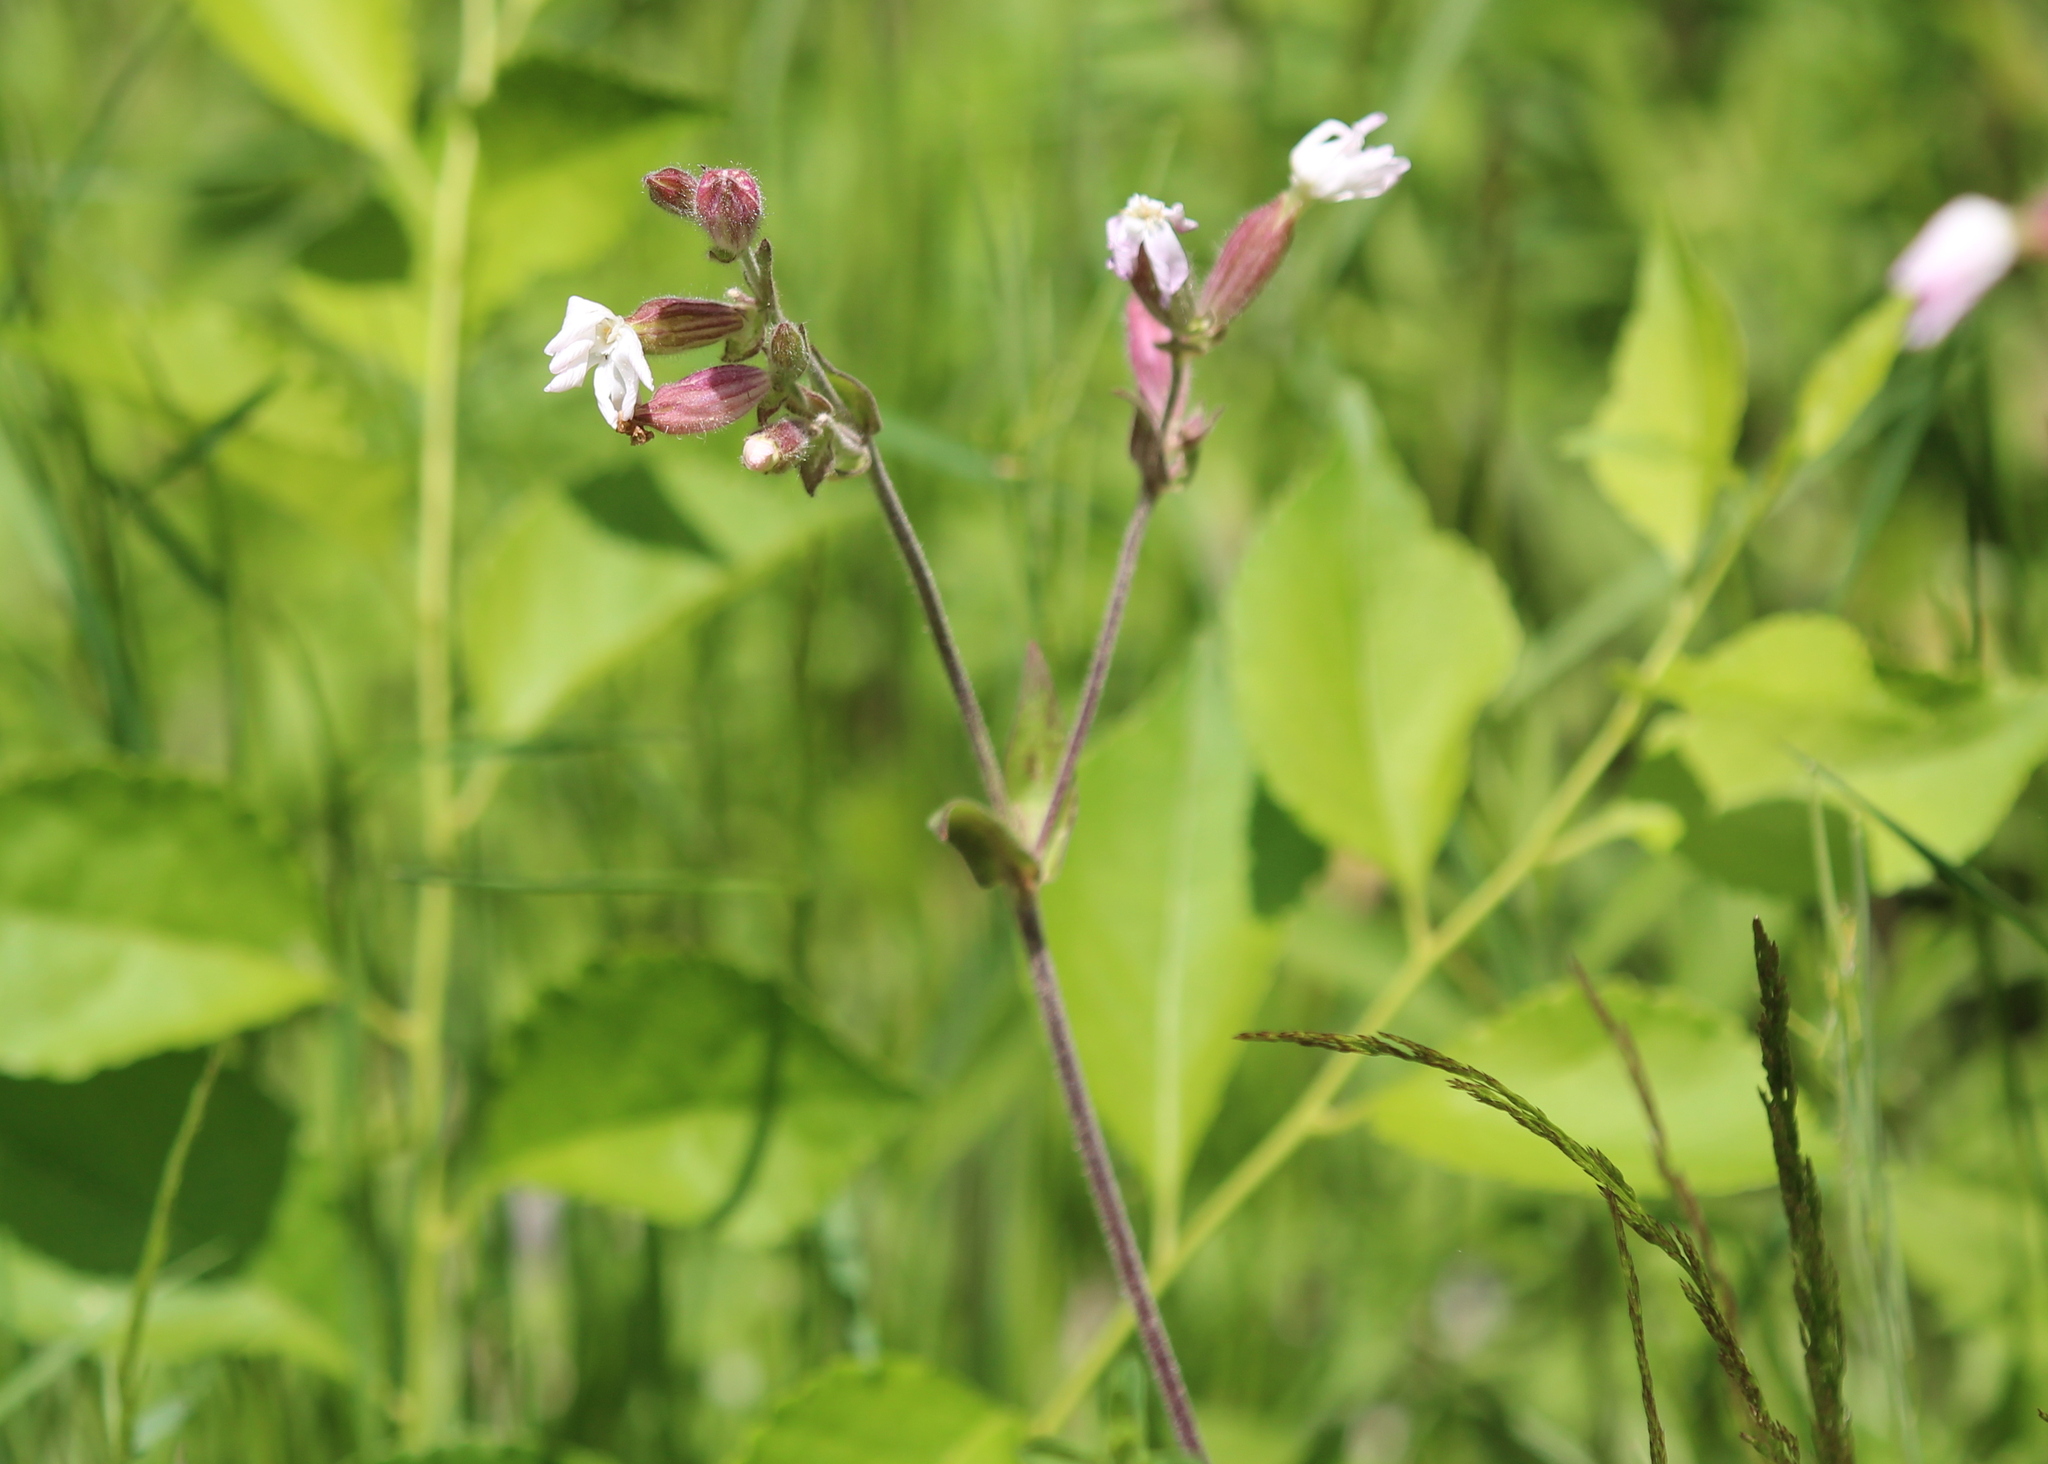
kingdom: Plantae
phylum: Tracheophyta
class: Magnoliopsida
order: Caryophyllales
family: Caryophyllaceae
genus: Silene
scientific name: Silene latifolia
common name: White campion
